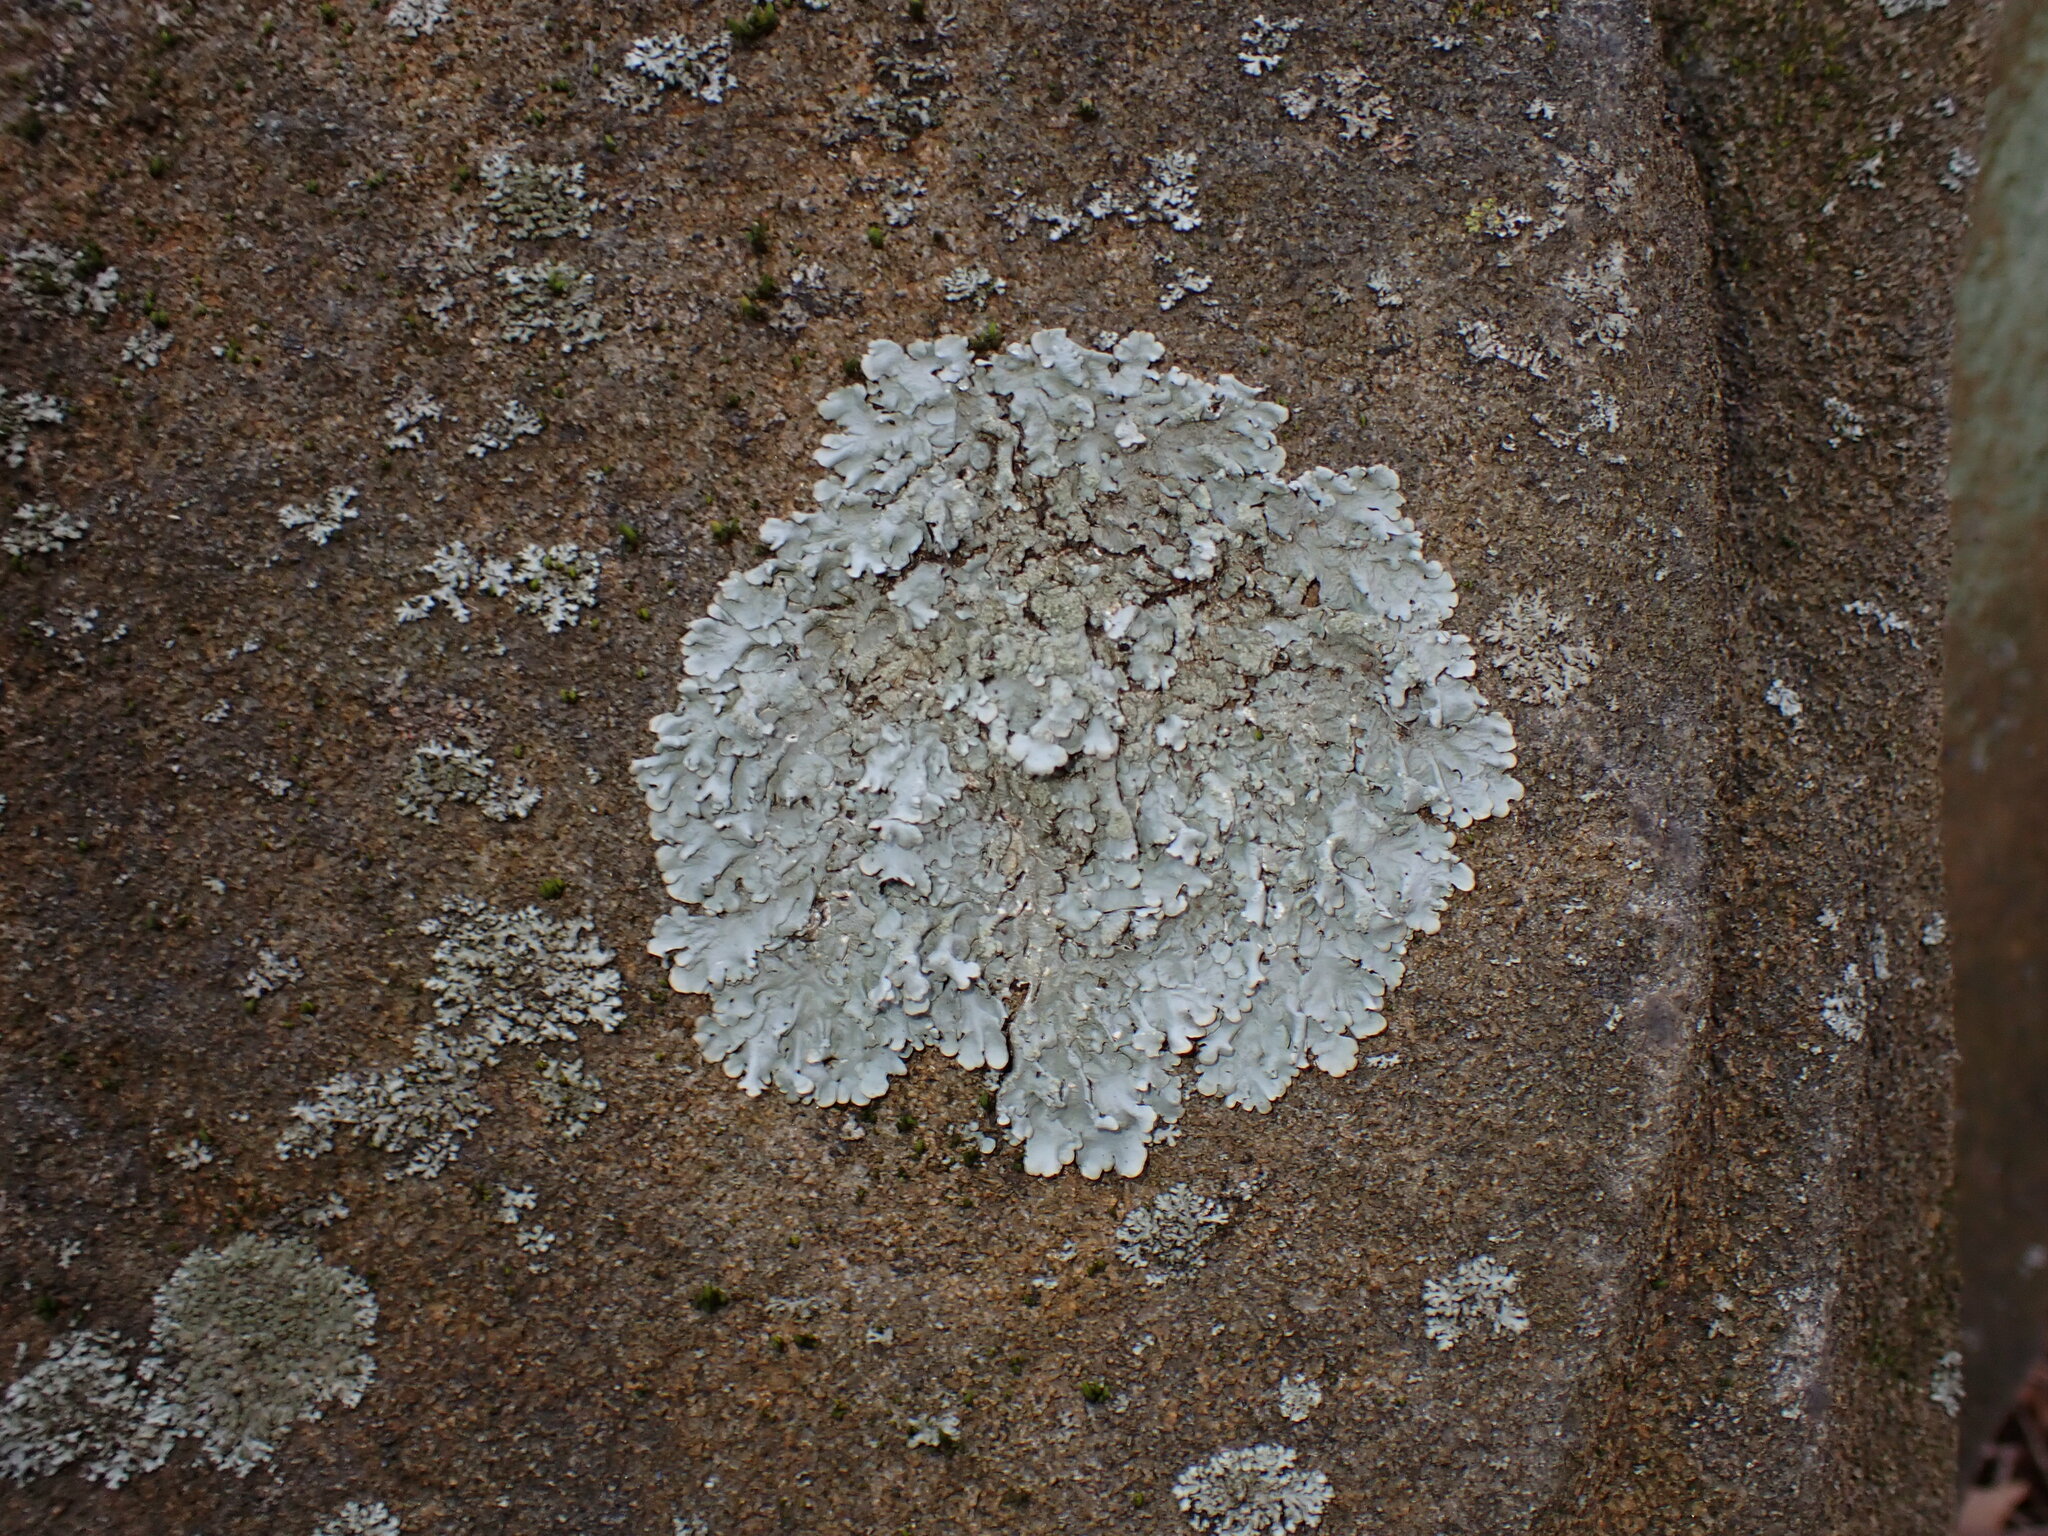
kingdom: Fungi
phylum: Ascomycota
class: Lecanoromycetes
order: Lecanorales
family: Parmeliaceae
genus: Flavoparmelia
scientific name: Flavoparmelia caperata
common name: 40-mile per hour lichen
